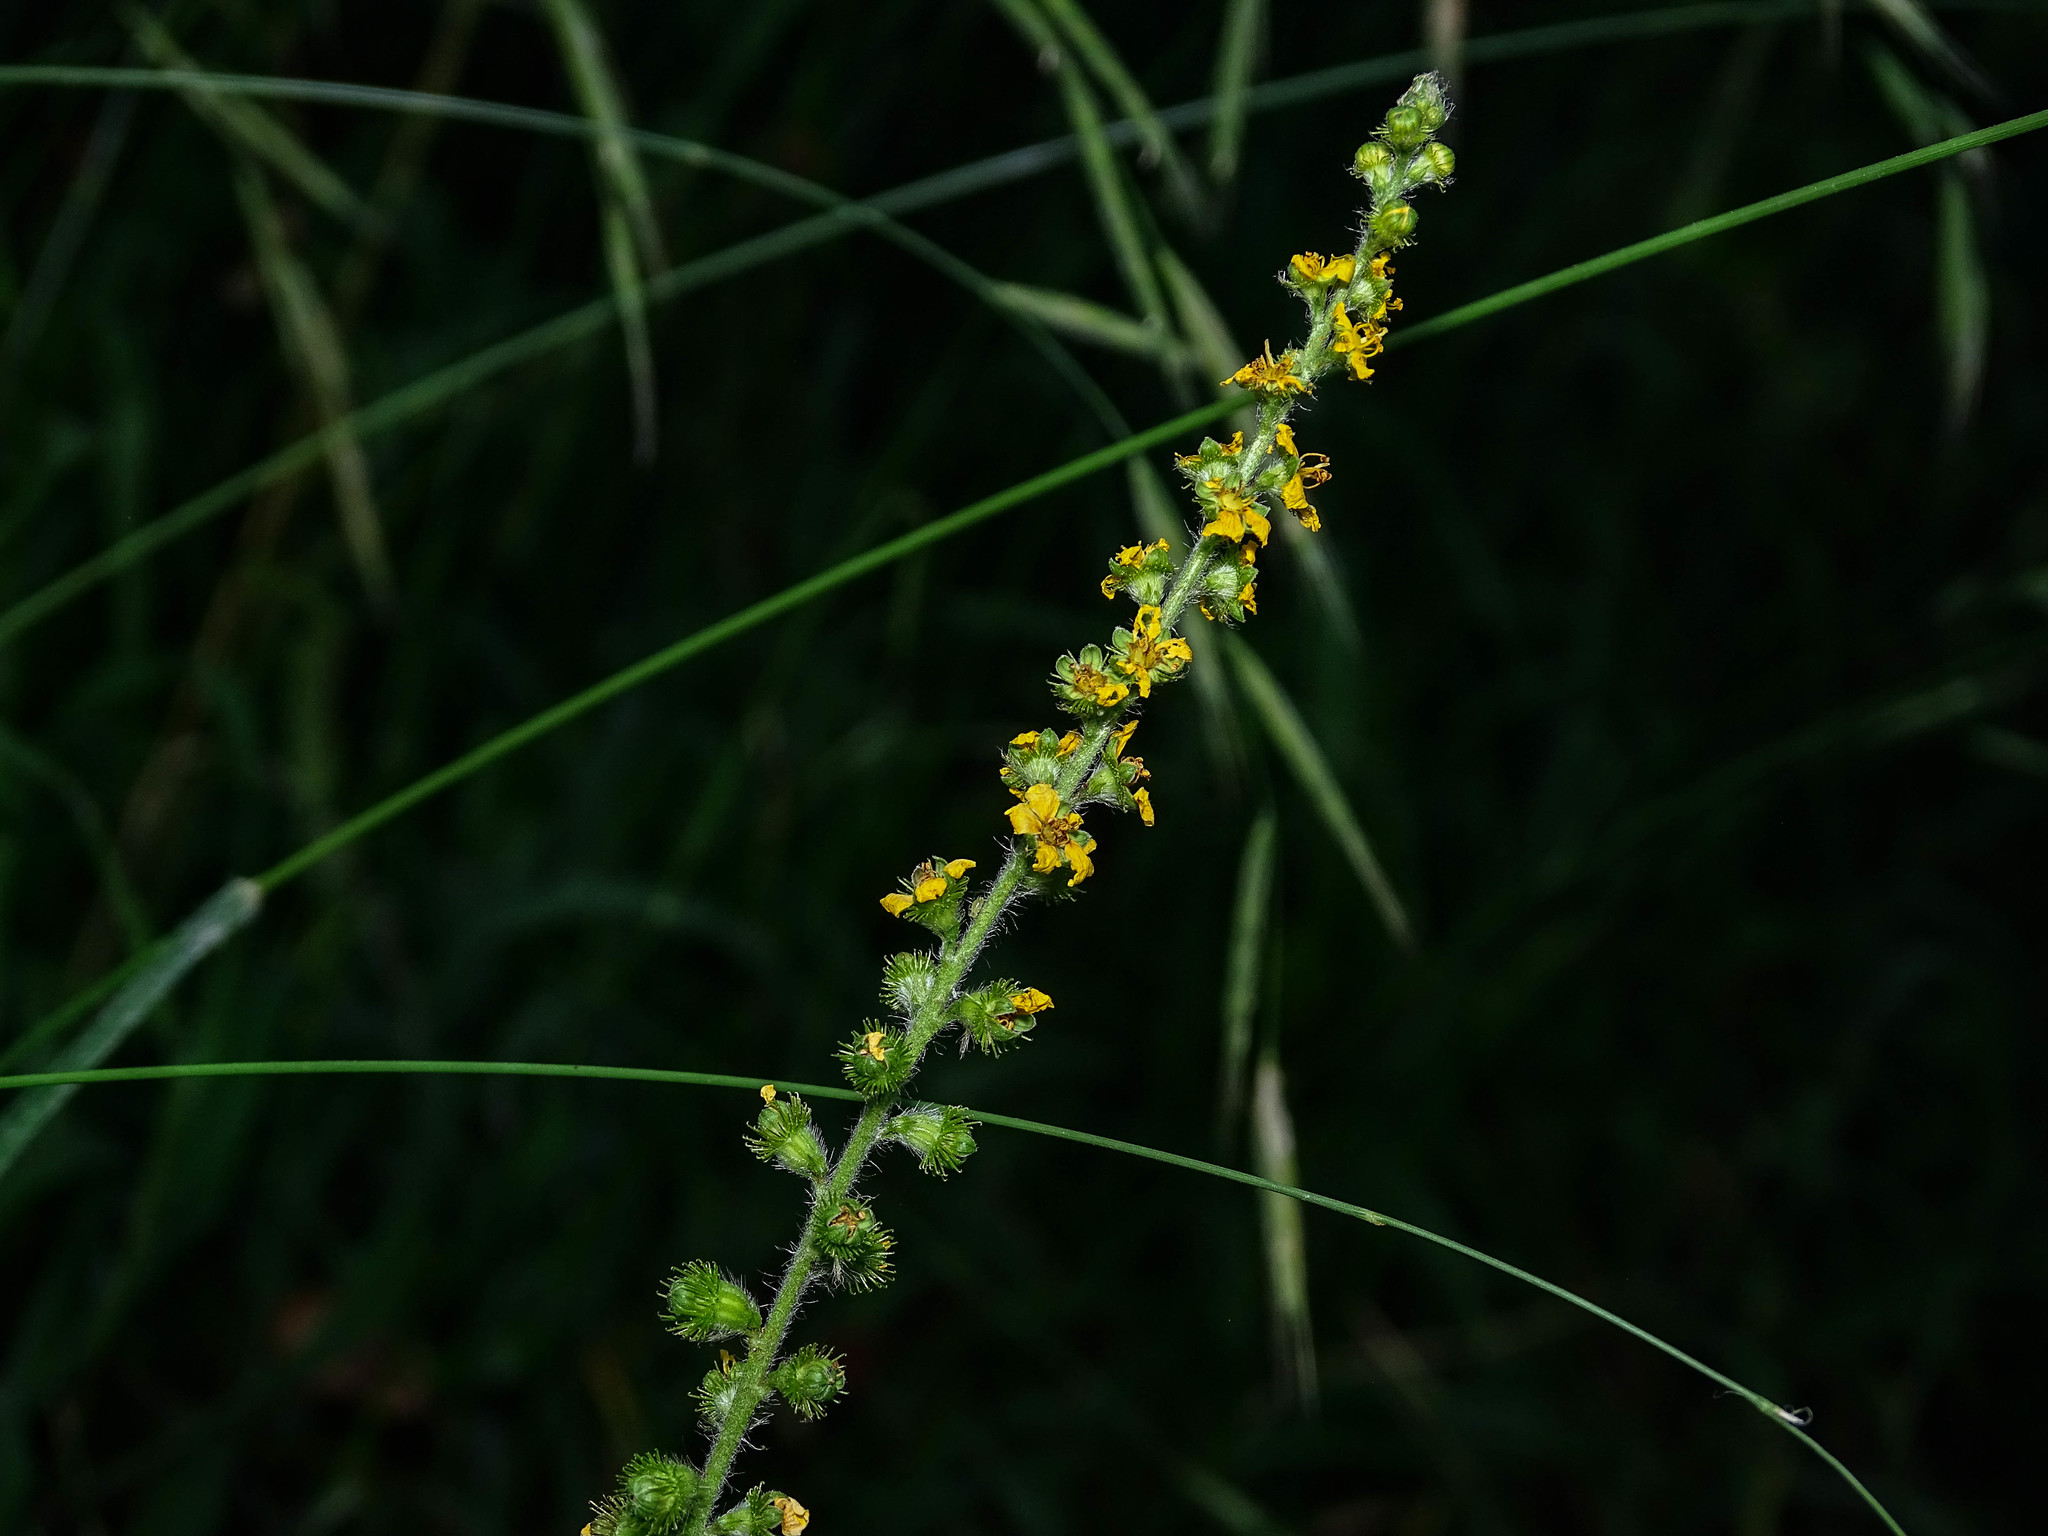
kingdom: Plantae
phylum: Tracheophyta
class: Magnoliopsida
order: Rosales
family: Rosaceae
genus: Agrimonia
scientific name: Agrimonia eupatoria
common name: Agrimony
